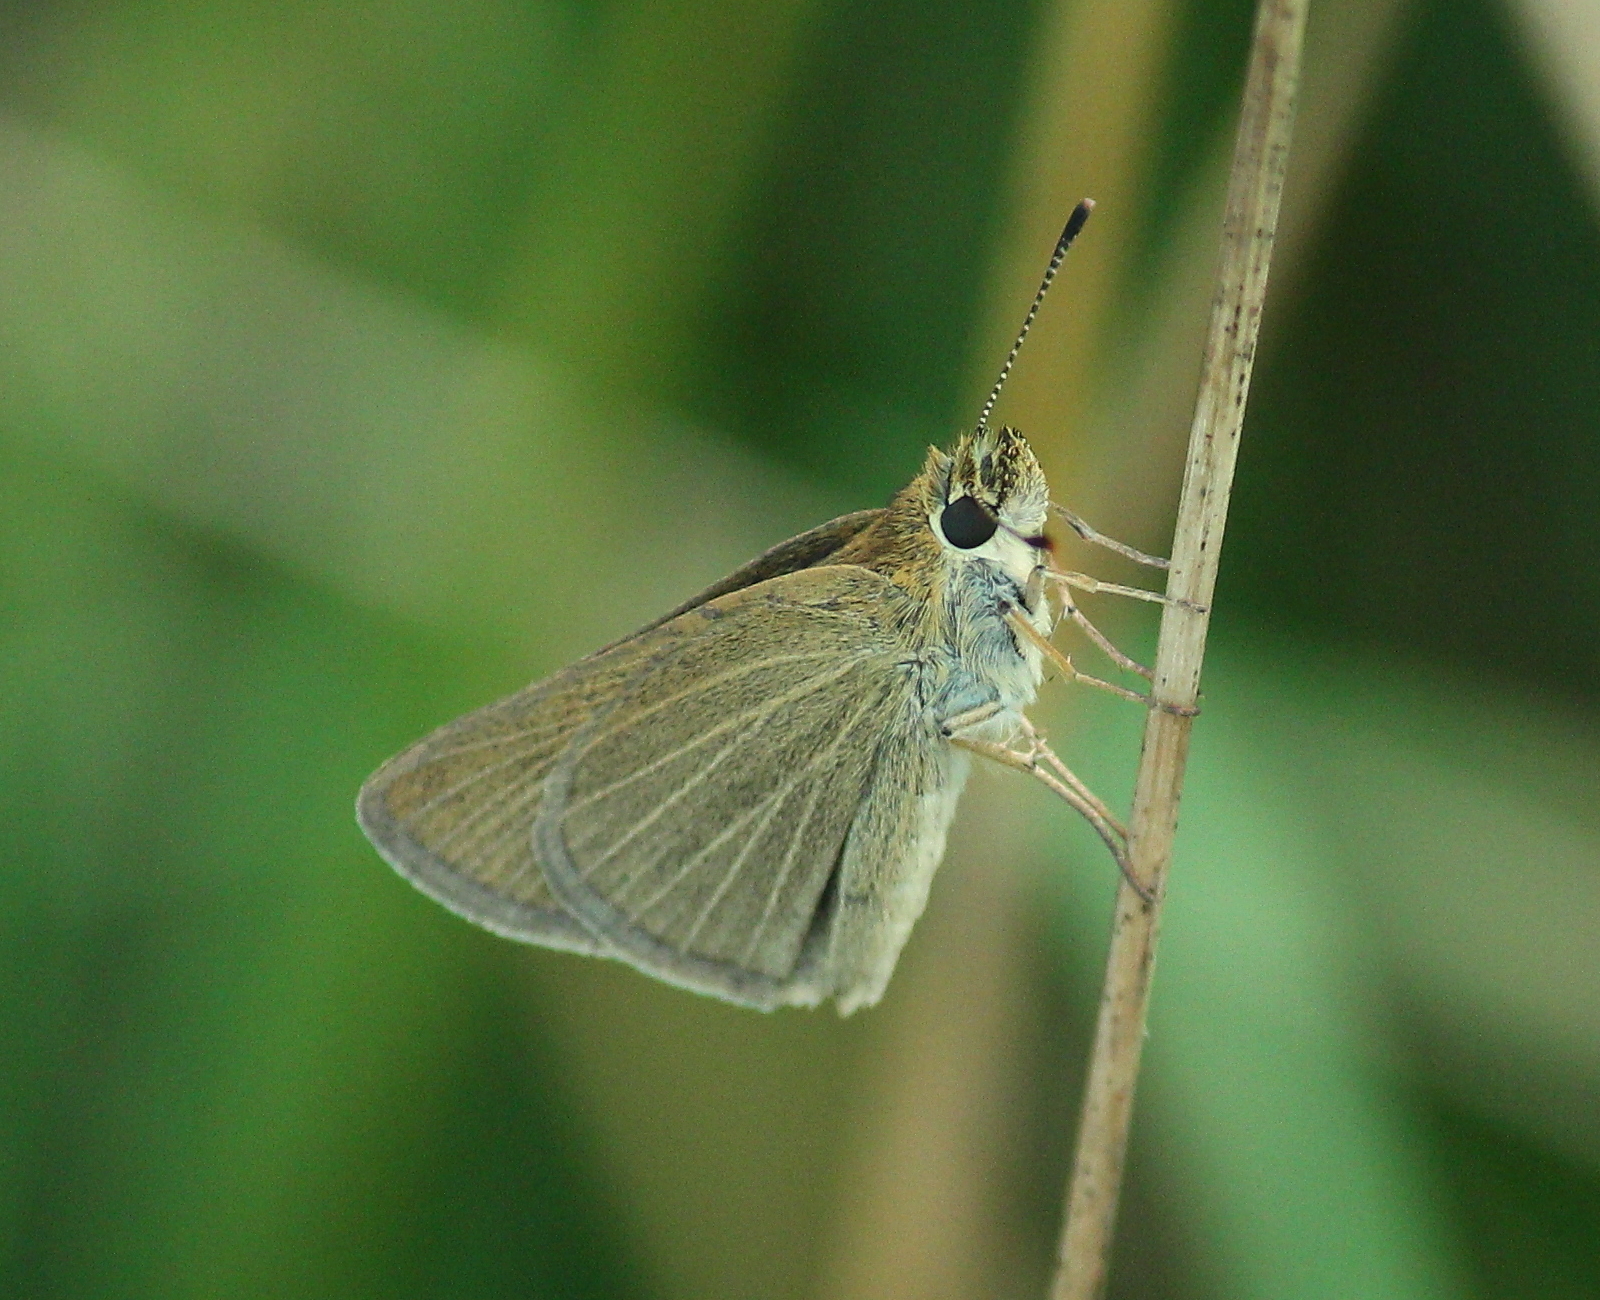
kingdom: Animalia
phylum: Arthropoda
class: Insecta
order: Lepidoptera
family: Hesperiidae
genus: Nastra
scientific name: Nastra lherminier
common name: Swarthy skipper
